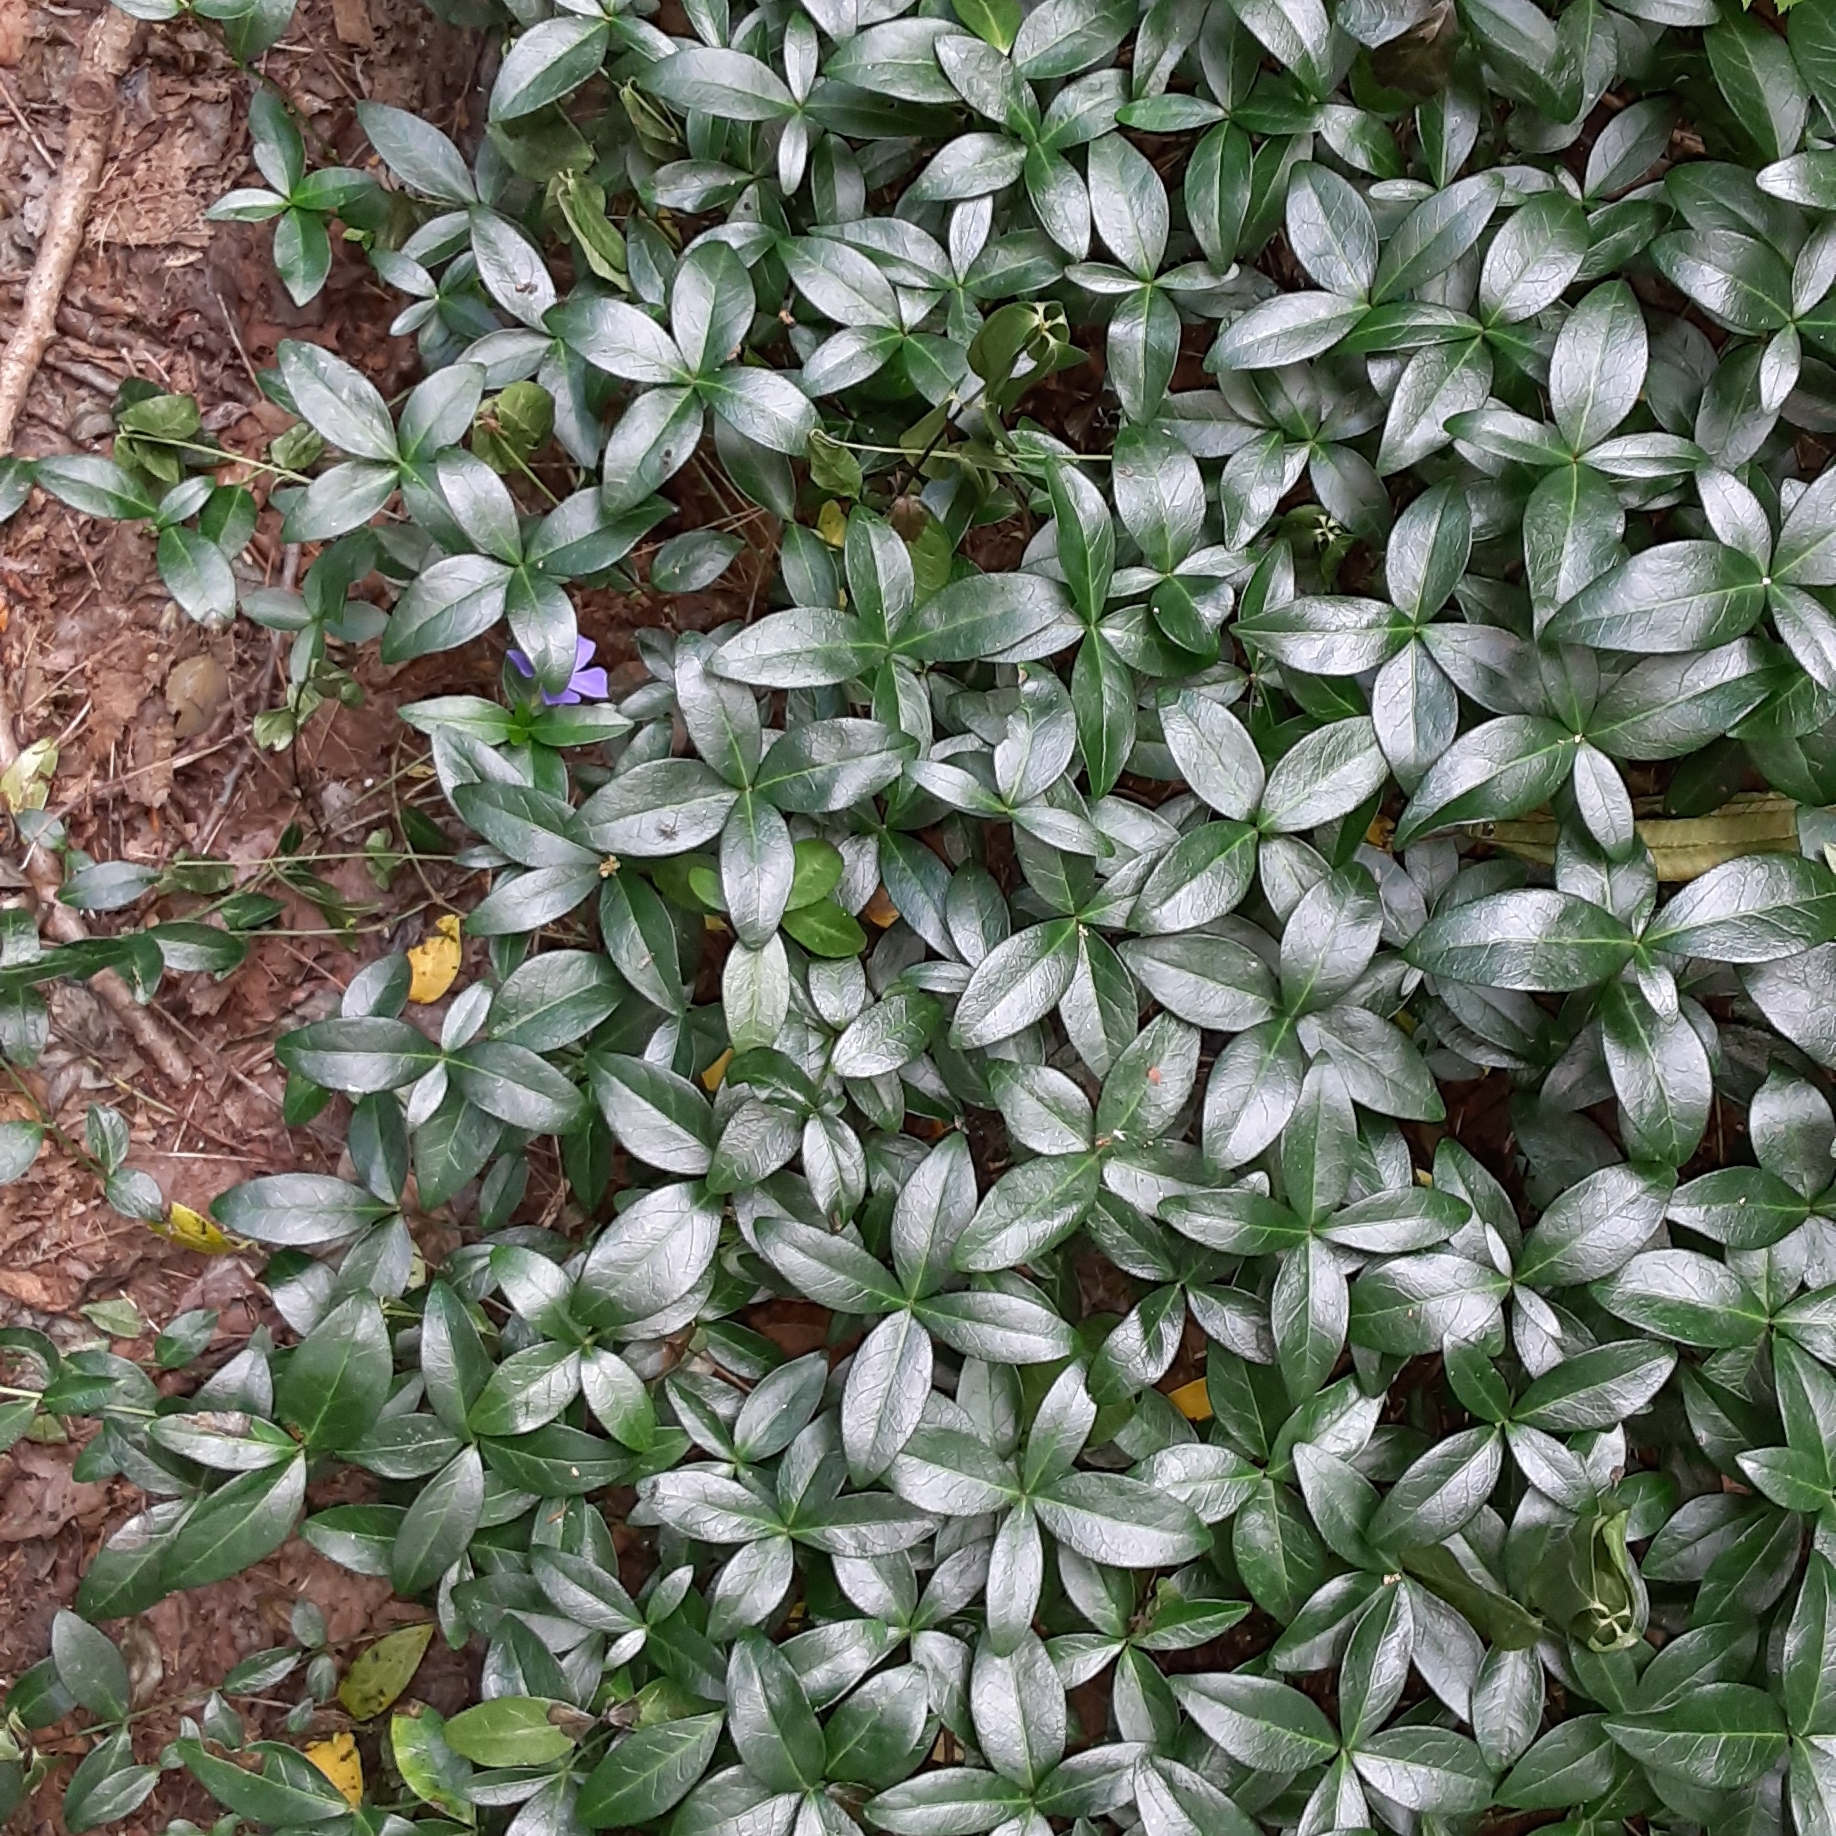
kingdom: Plantae
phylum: Tracheophyta
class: Magnoliopsida
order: Gentianales
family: Apocynaceae
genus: Vinca
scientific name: Vinca minor
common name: Lesser periwinkle
